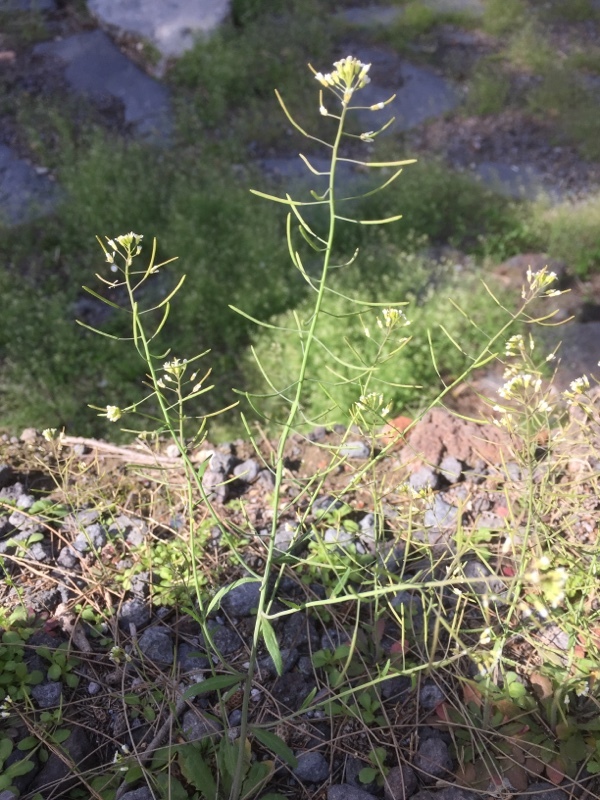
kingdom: Plantae
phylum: Tracheophyta
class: Magnoliopsida
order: Brassicales
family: Brassicaceae
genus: Arabidopsis
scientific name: Arabidopsis thaliana
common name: Thale cress
